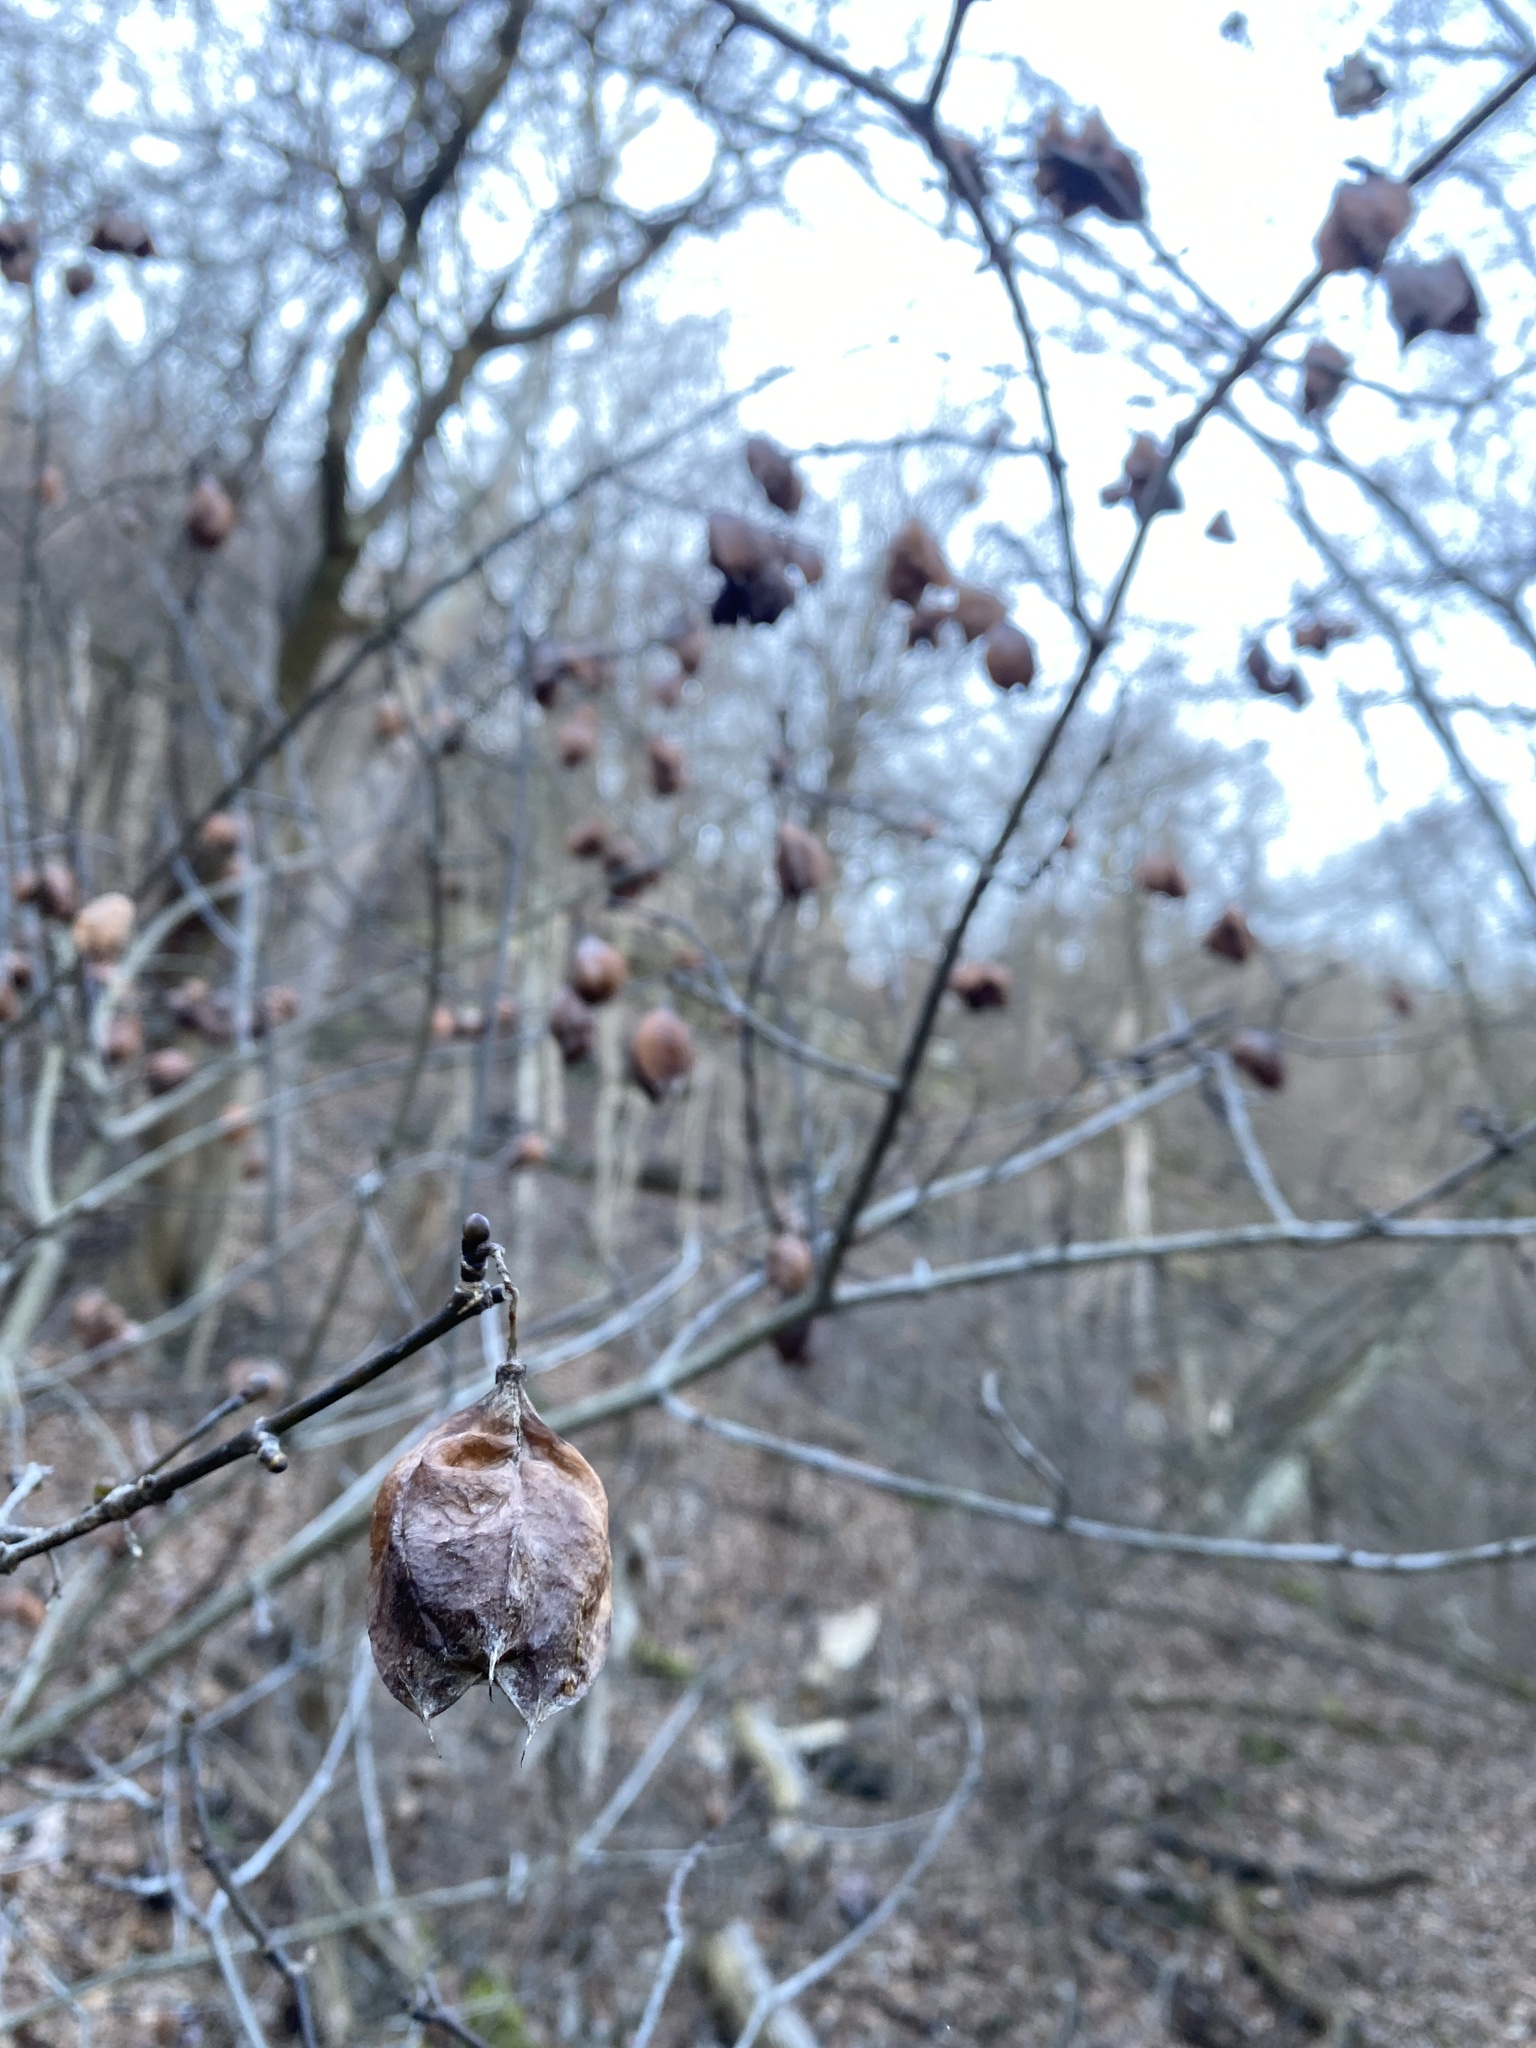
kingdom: Plantae
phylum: Tracheophyta
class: Magnoliopsida
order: Crossosomatales
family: Staphyleaceae
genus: Staphylea
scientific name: Staphylea trifolia
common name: American bladdernut
